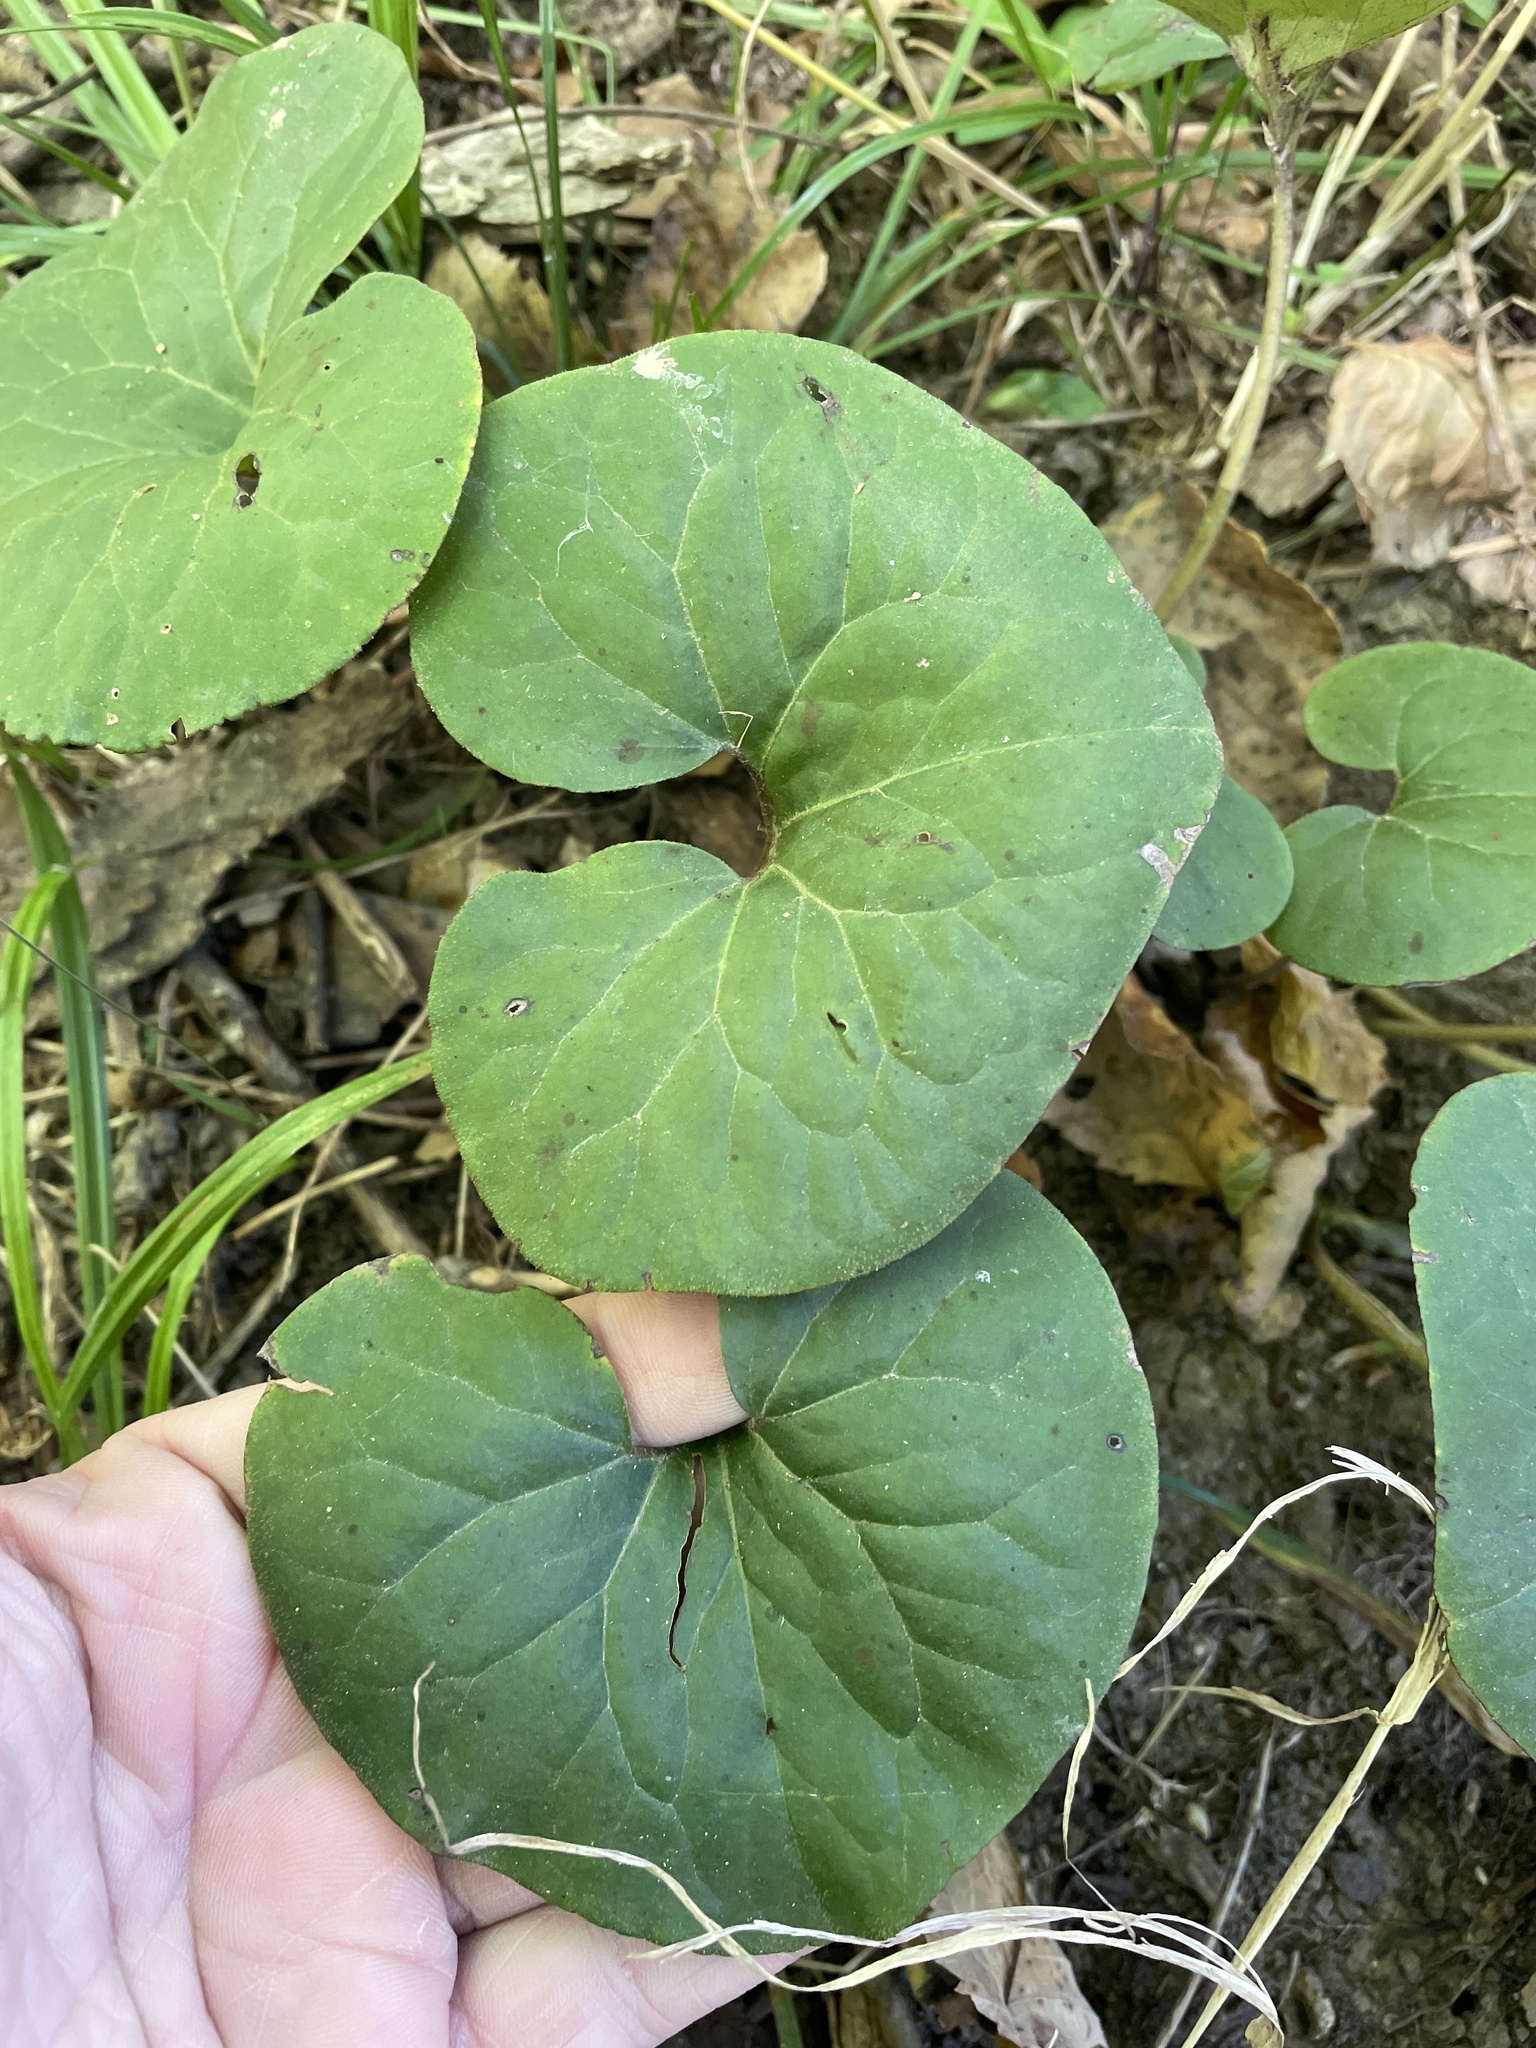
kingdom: Plantae
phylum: Tracheophyta
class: Magnoliopsida
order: Piperales
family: Aristolochiaceae
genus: Asarum
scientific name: Asarum canadense
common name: Wild ginger
